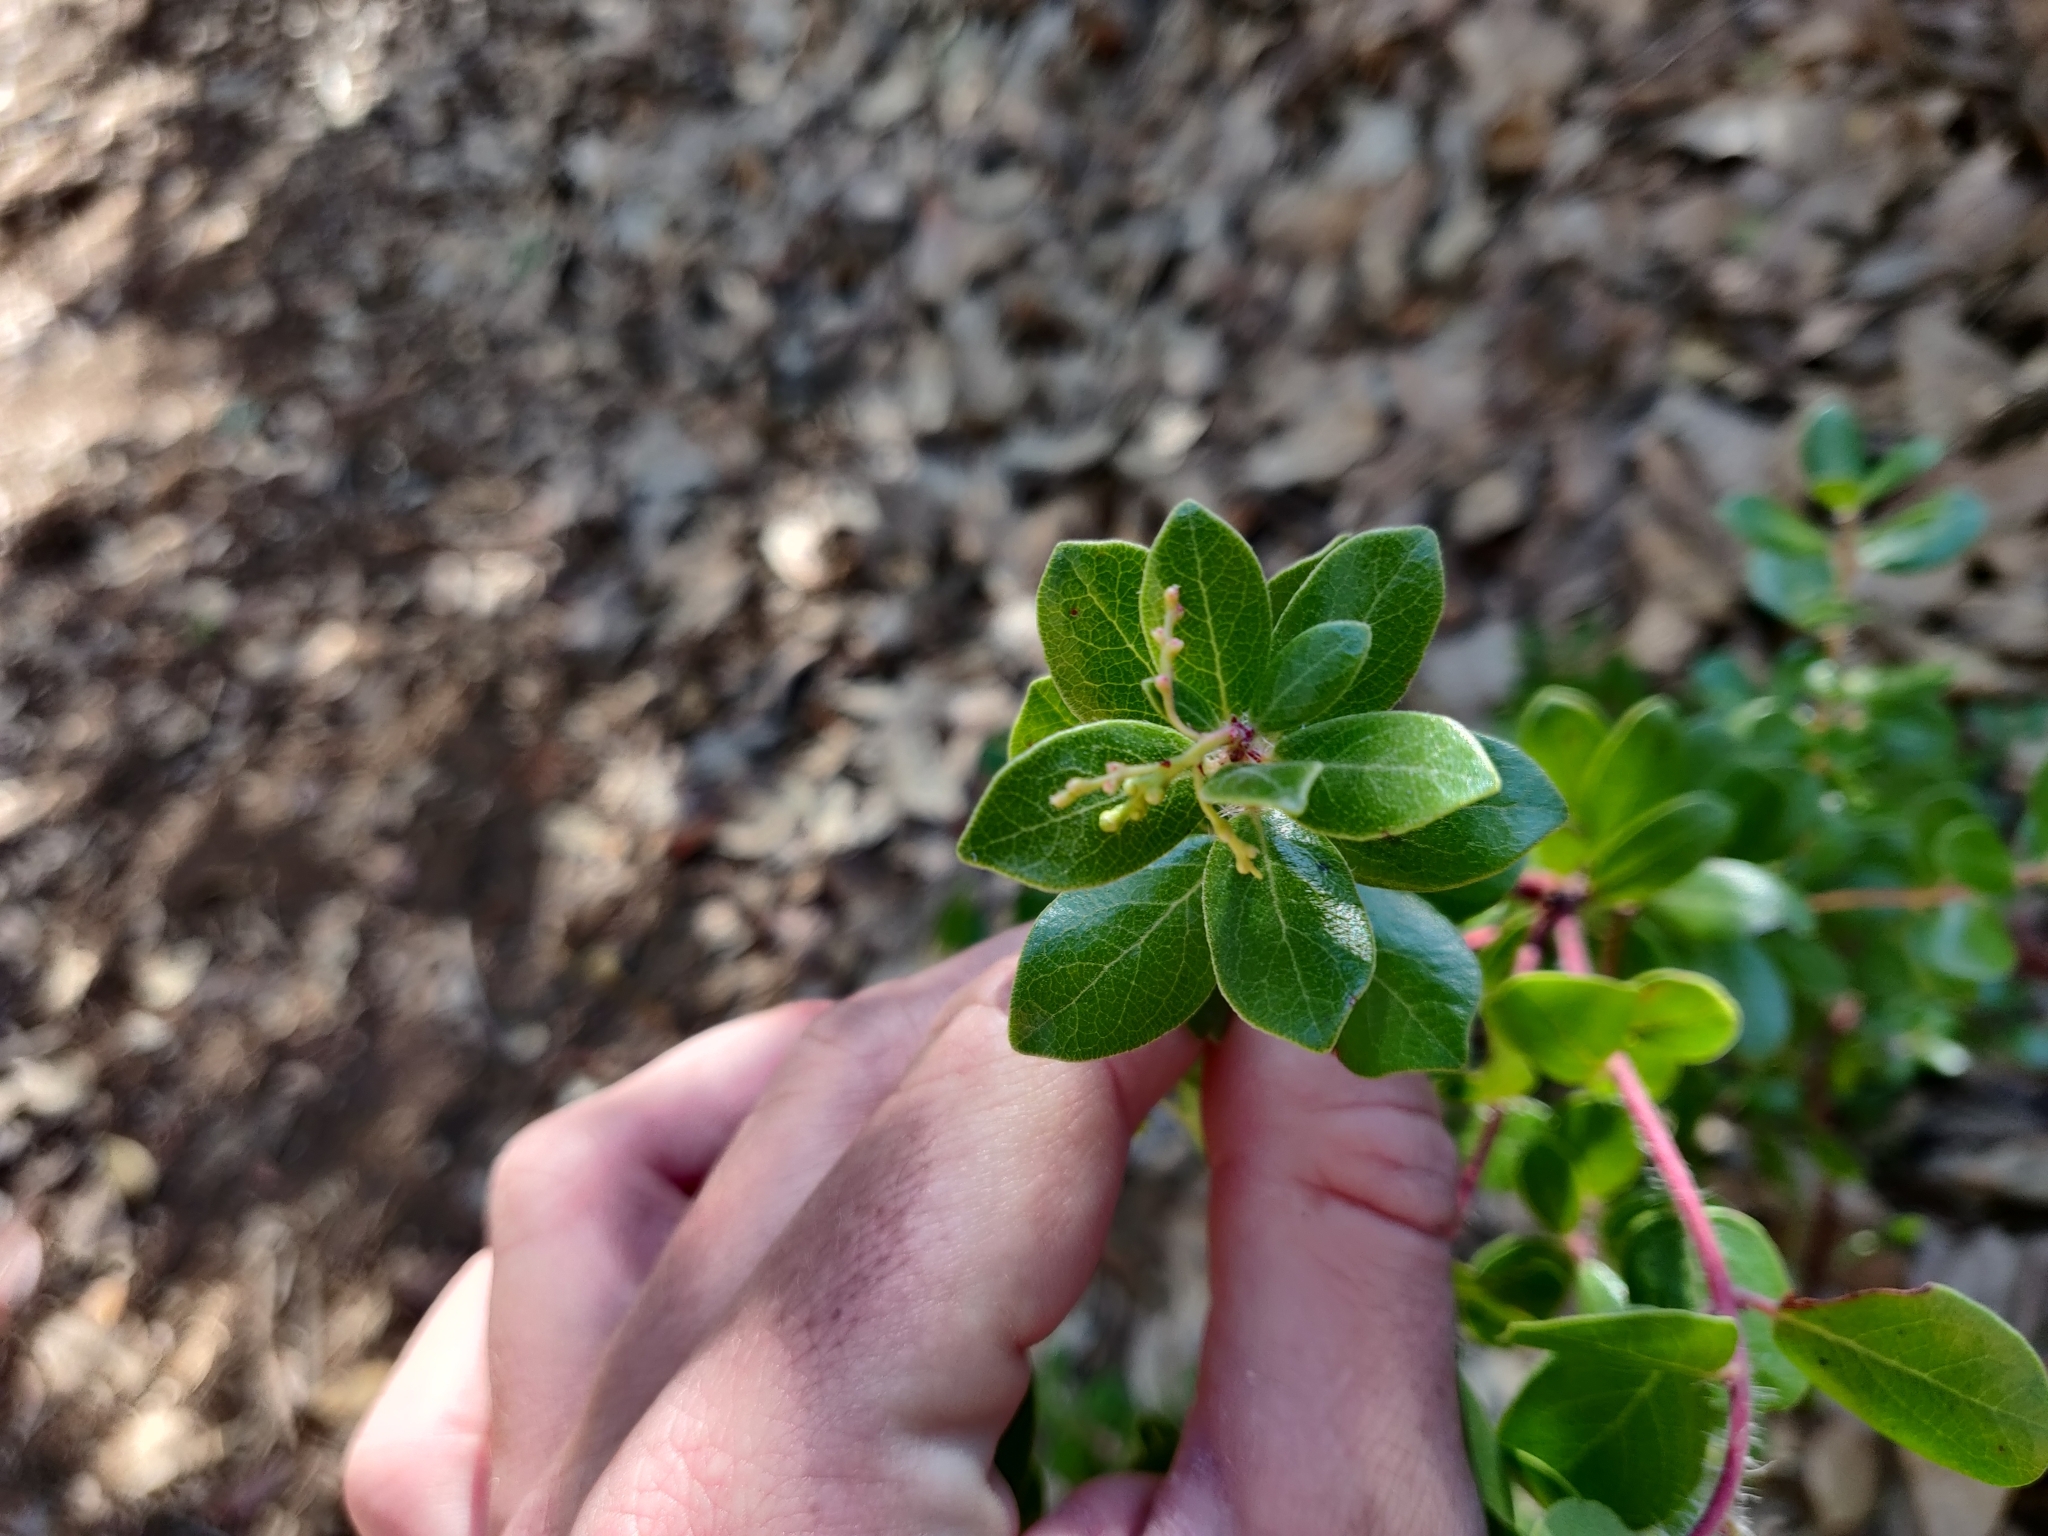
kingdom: Plantae
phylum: Tracheophyta
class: Magnoliopsida
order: Ericales
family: Ericaceae
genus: Arctostaphylos
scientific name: Arctostaphylos nummularia
